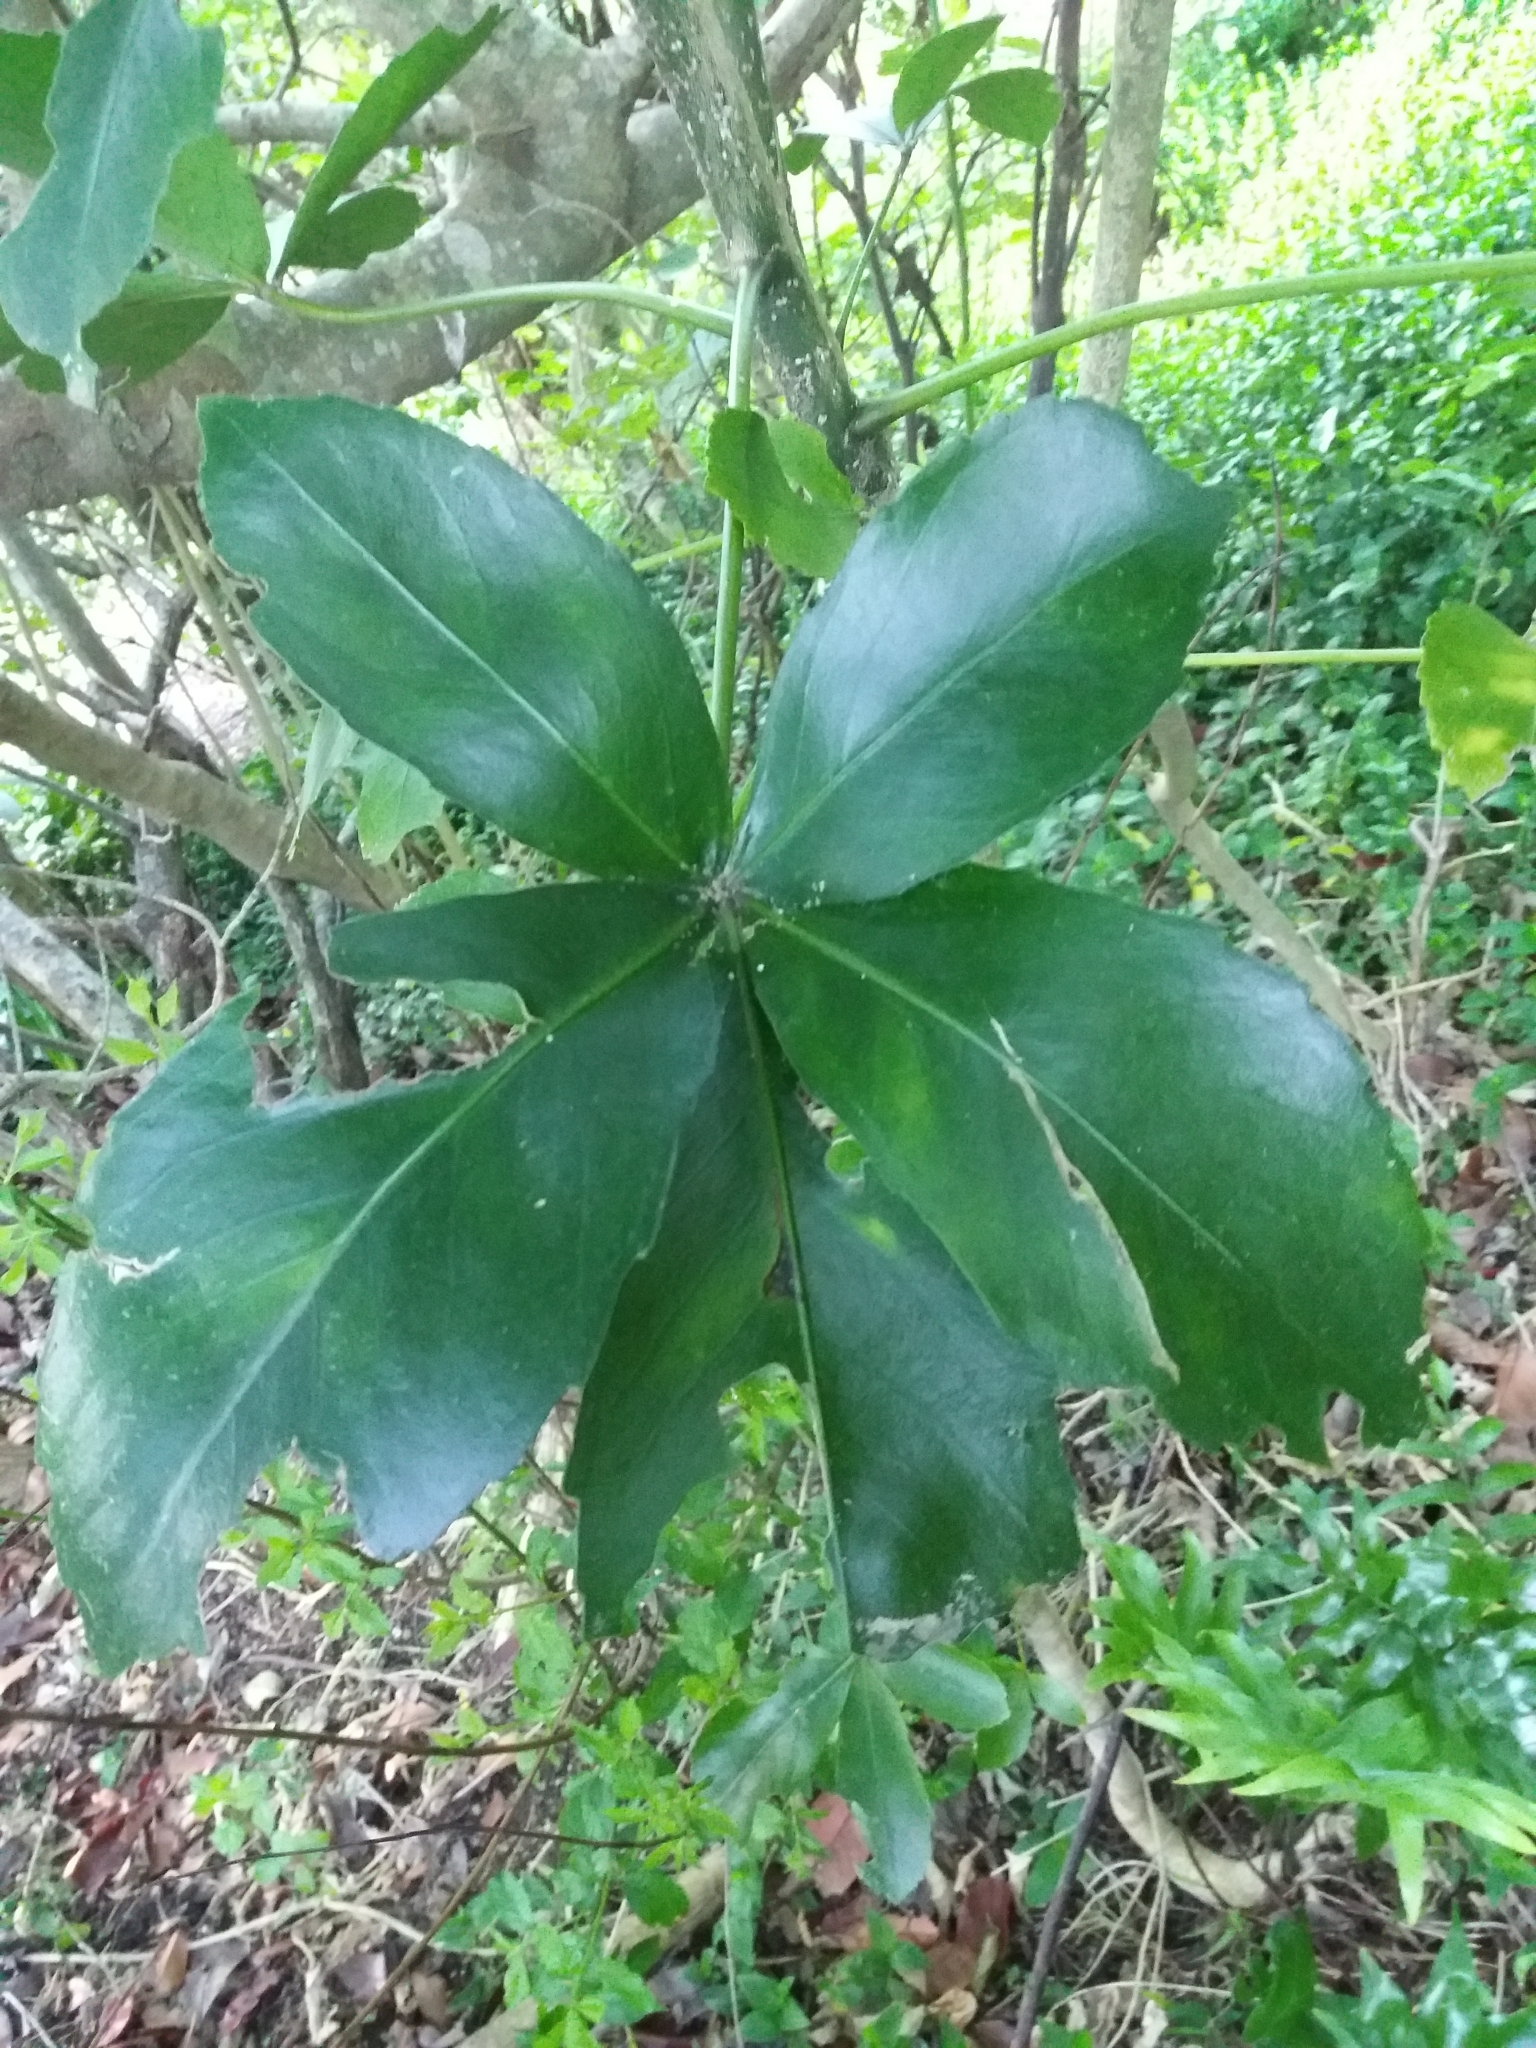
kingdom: Plantae
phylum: Tracheophyta
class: Magnoliopsida
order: Apiales
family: Araliaceae
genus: Pseudopanax
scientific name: Pseudopanax lessonii
